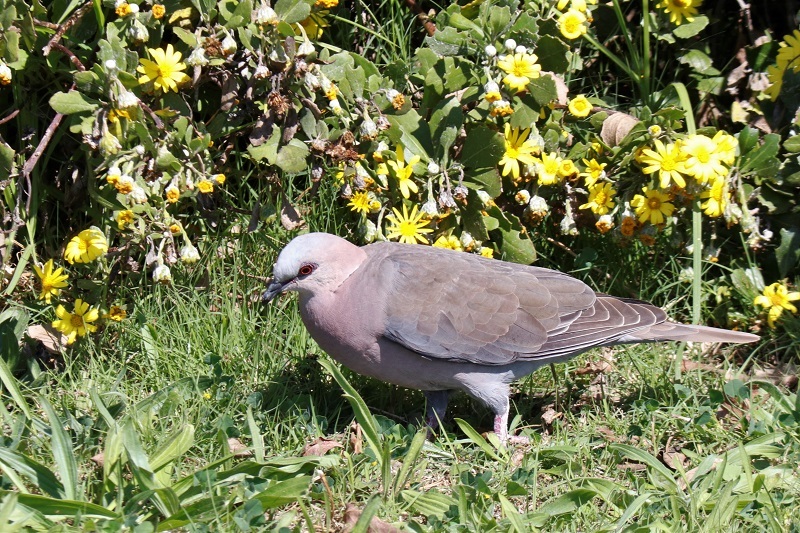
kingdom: Animalia
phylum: Chordata
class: Aves
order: Columbiformes
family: Columbidae
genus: Streptopelia
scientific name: Streptopelia semitorquata
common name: Red-eyed dove
